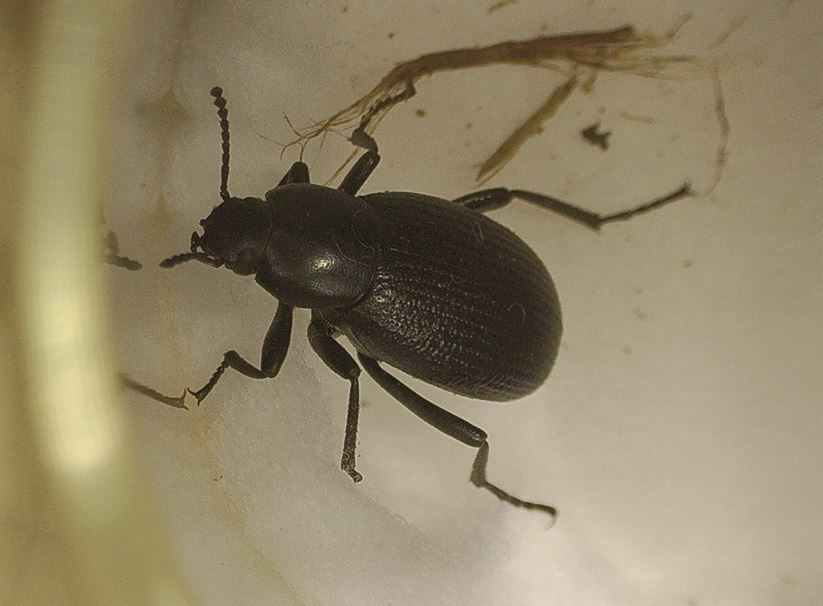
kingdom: Animalia
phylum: Arthropoda
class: Insecta
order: Coleoptera
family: Tenebrionidae
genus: Eleodes
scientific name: Eleodes carbonaria
